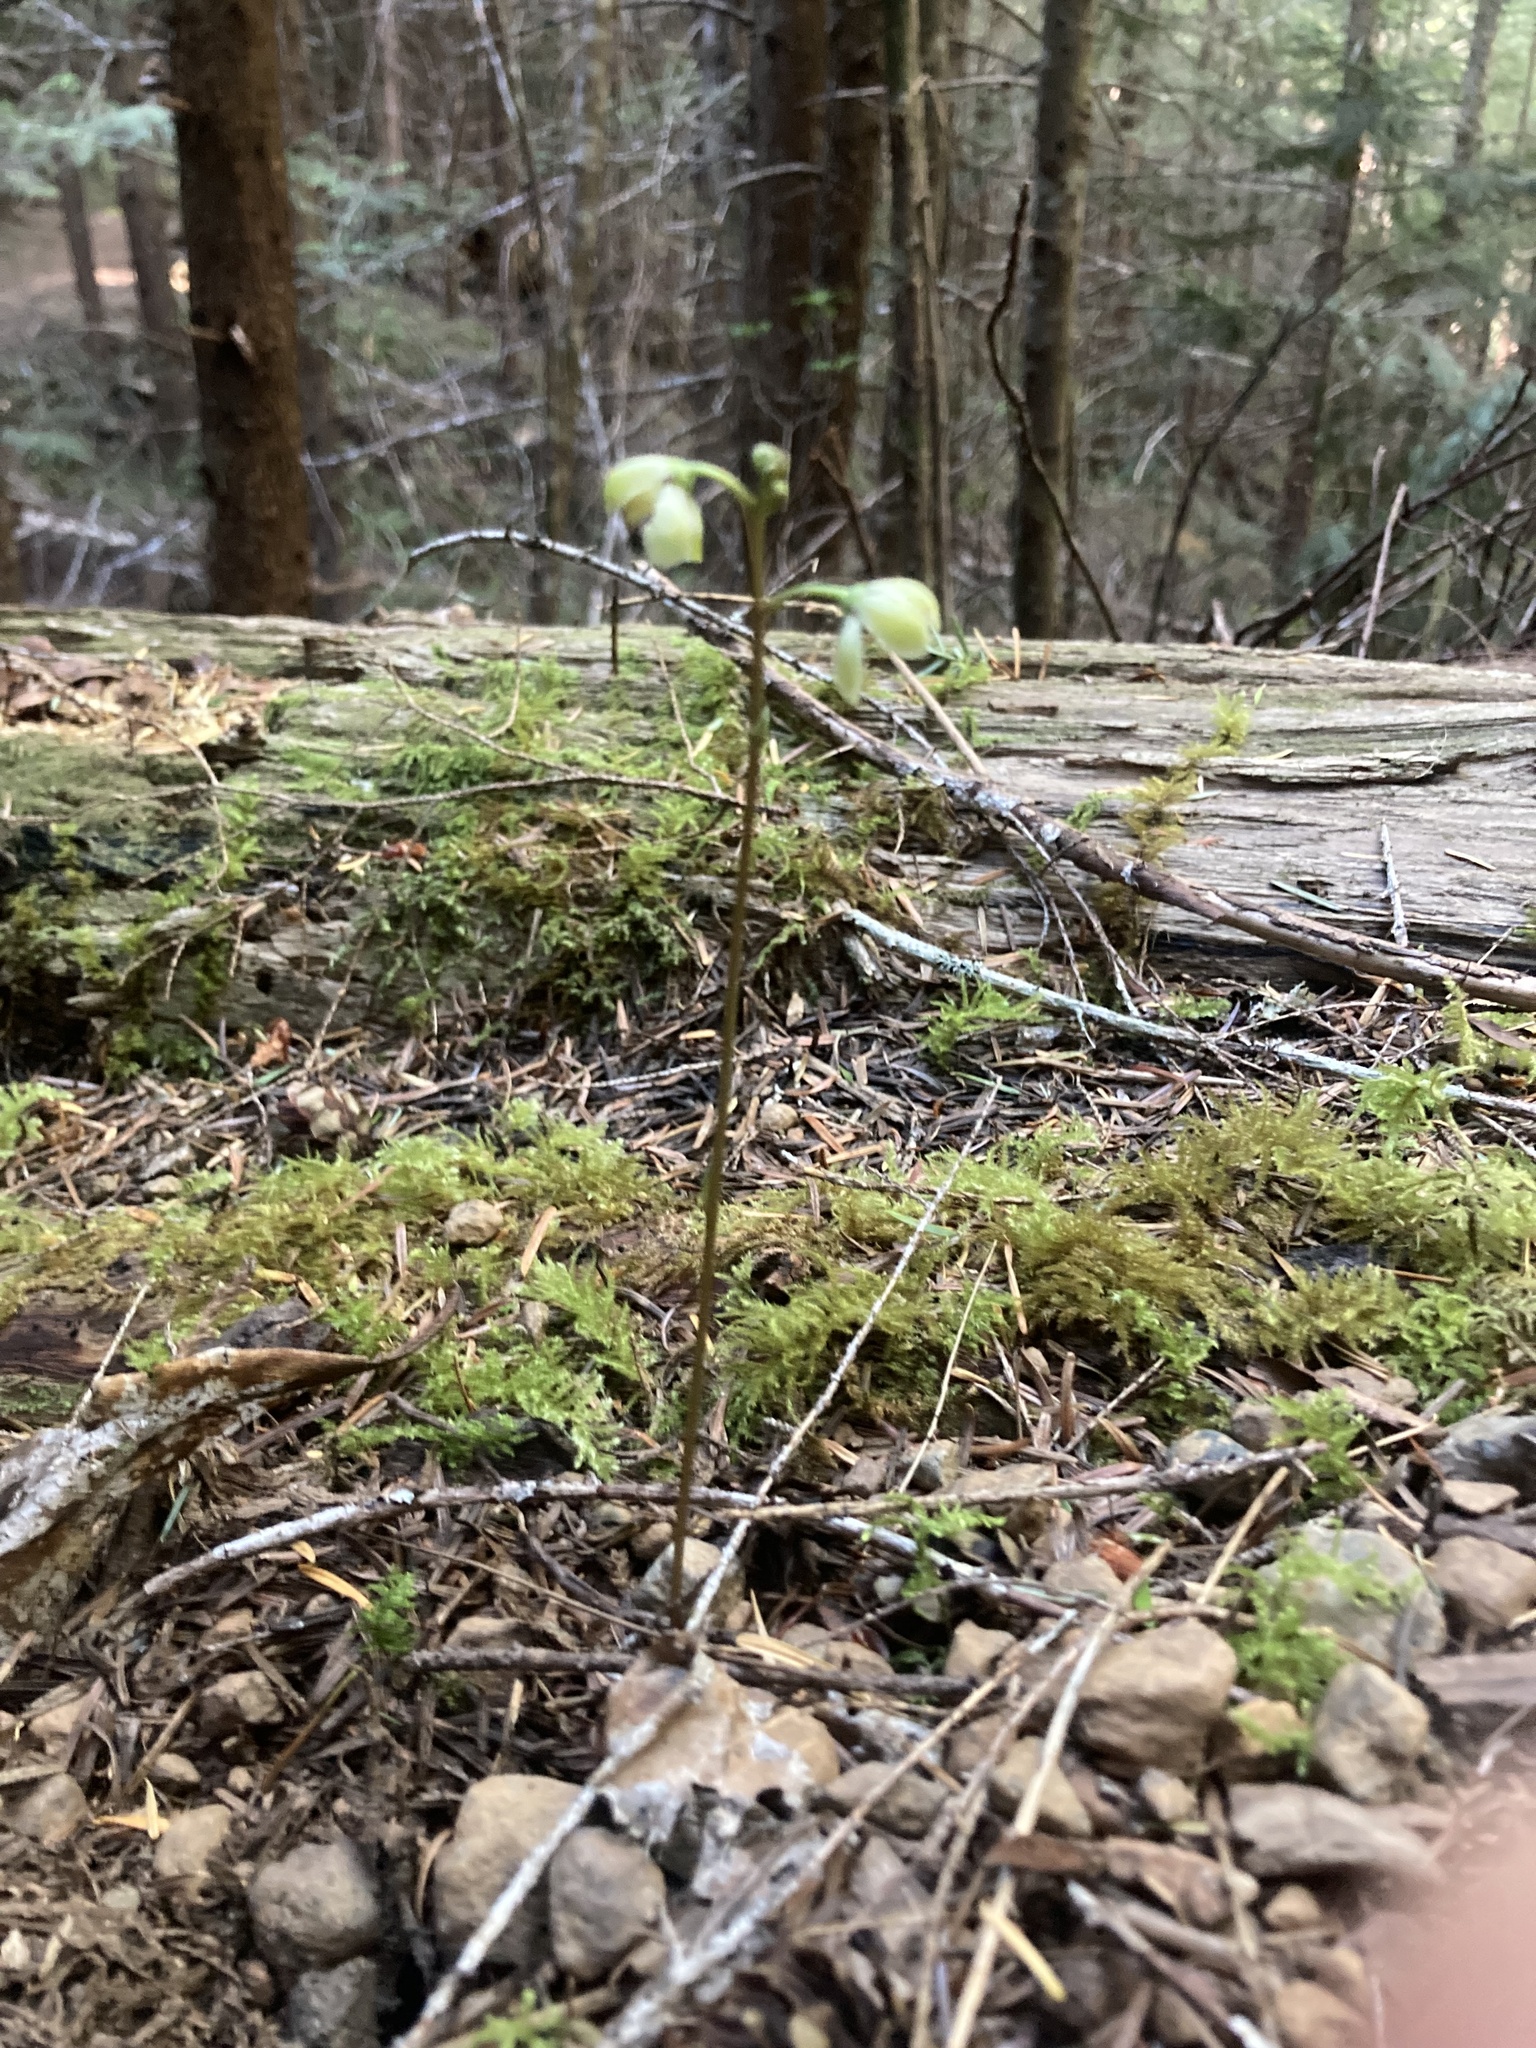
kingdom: Plantae
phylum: Tracheophyta
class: Magnoliopsida
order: Ericales
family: Ericaceae
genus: Pyrola
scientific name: Pyrola aphylla
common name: Leafless wintergreen
